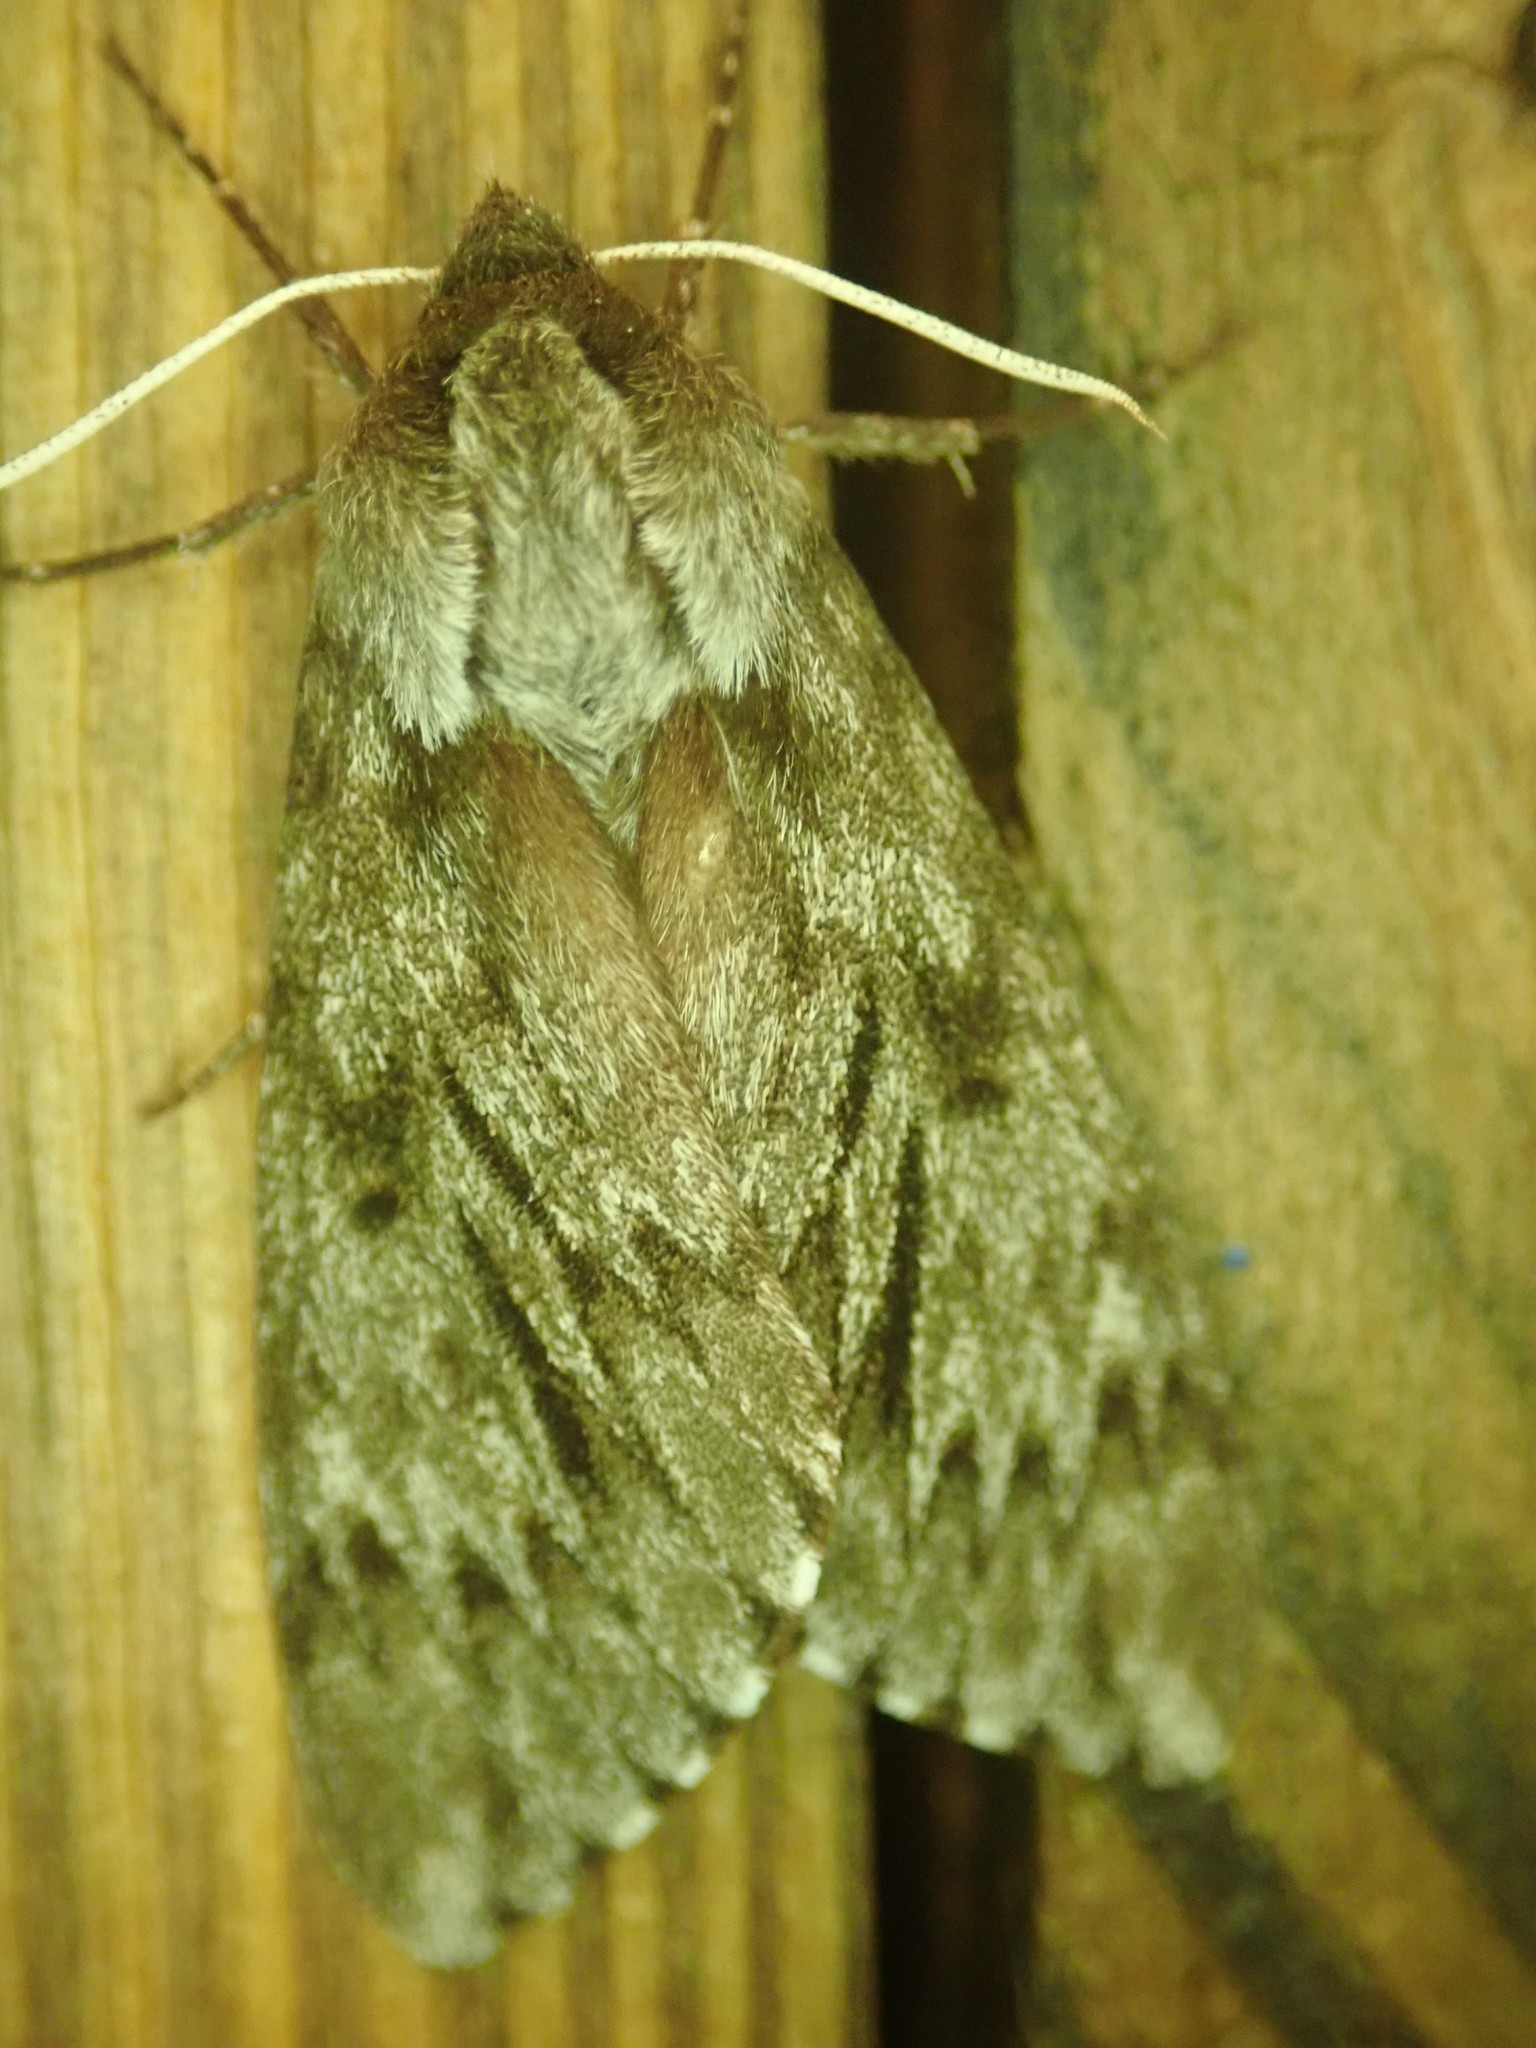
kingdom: Animalia
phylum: Arthropoda
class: Insecta
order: Lepidoptera
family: Sphingidae
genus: Lapara
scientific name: Lapara bombycoides
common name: Northern pine sphinx
